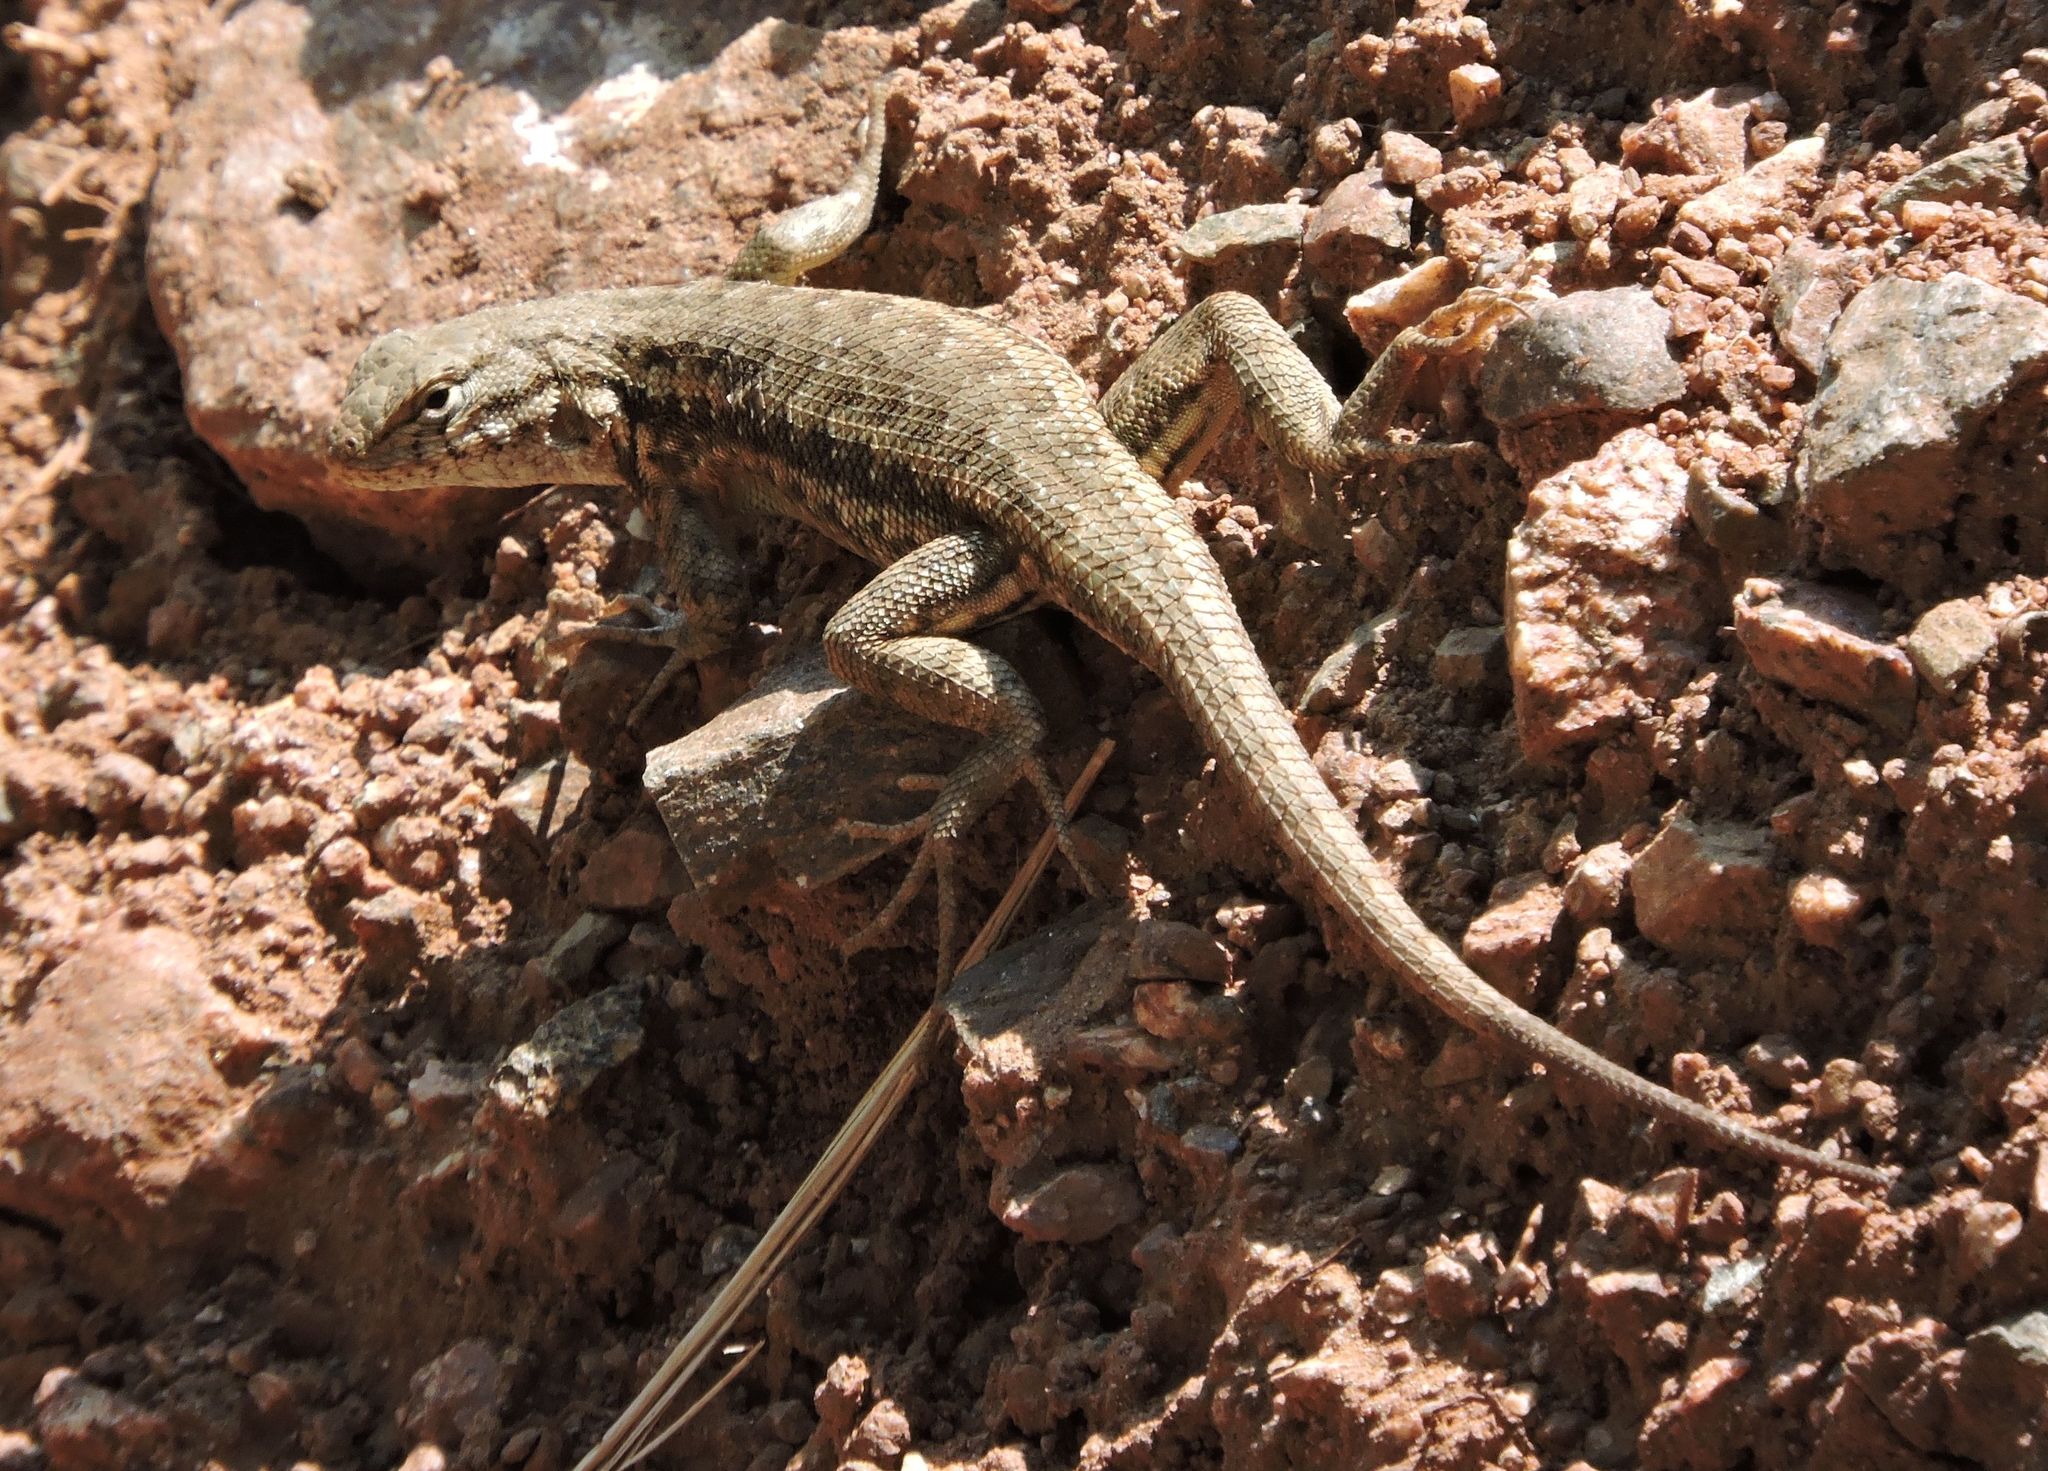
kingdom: Animalia
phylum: Chordata
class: Squamata
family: Phrynosomatidae
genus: Sceloporus
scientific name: Sceloporus graciosus
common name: Sagebrush lizard
